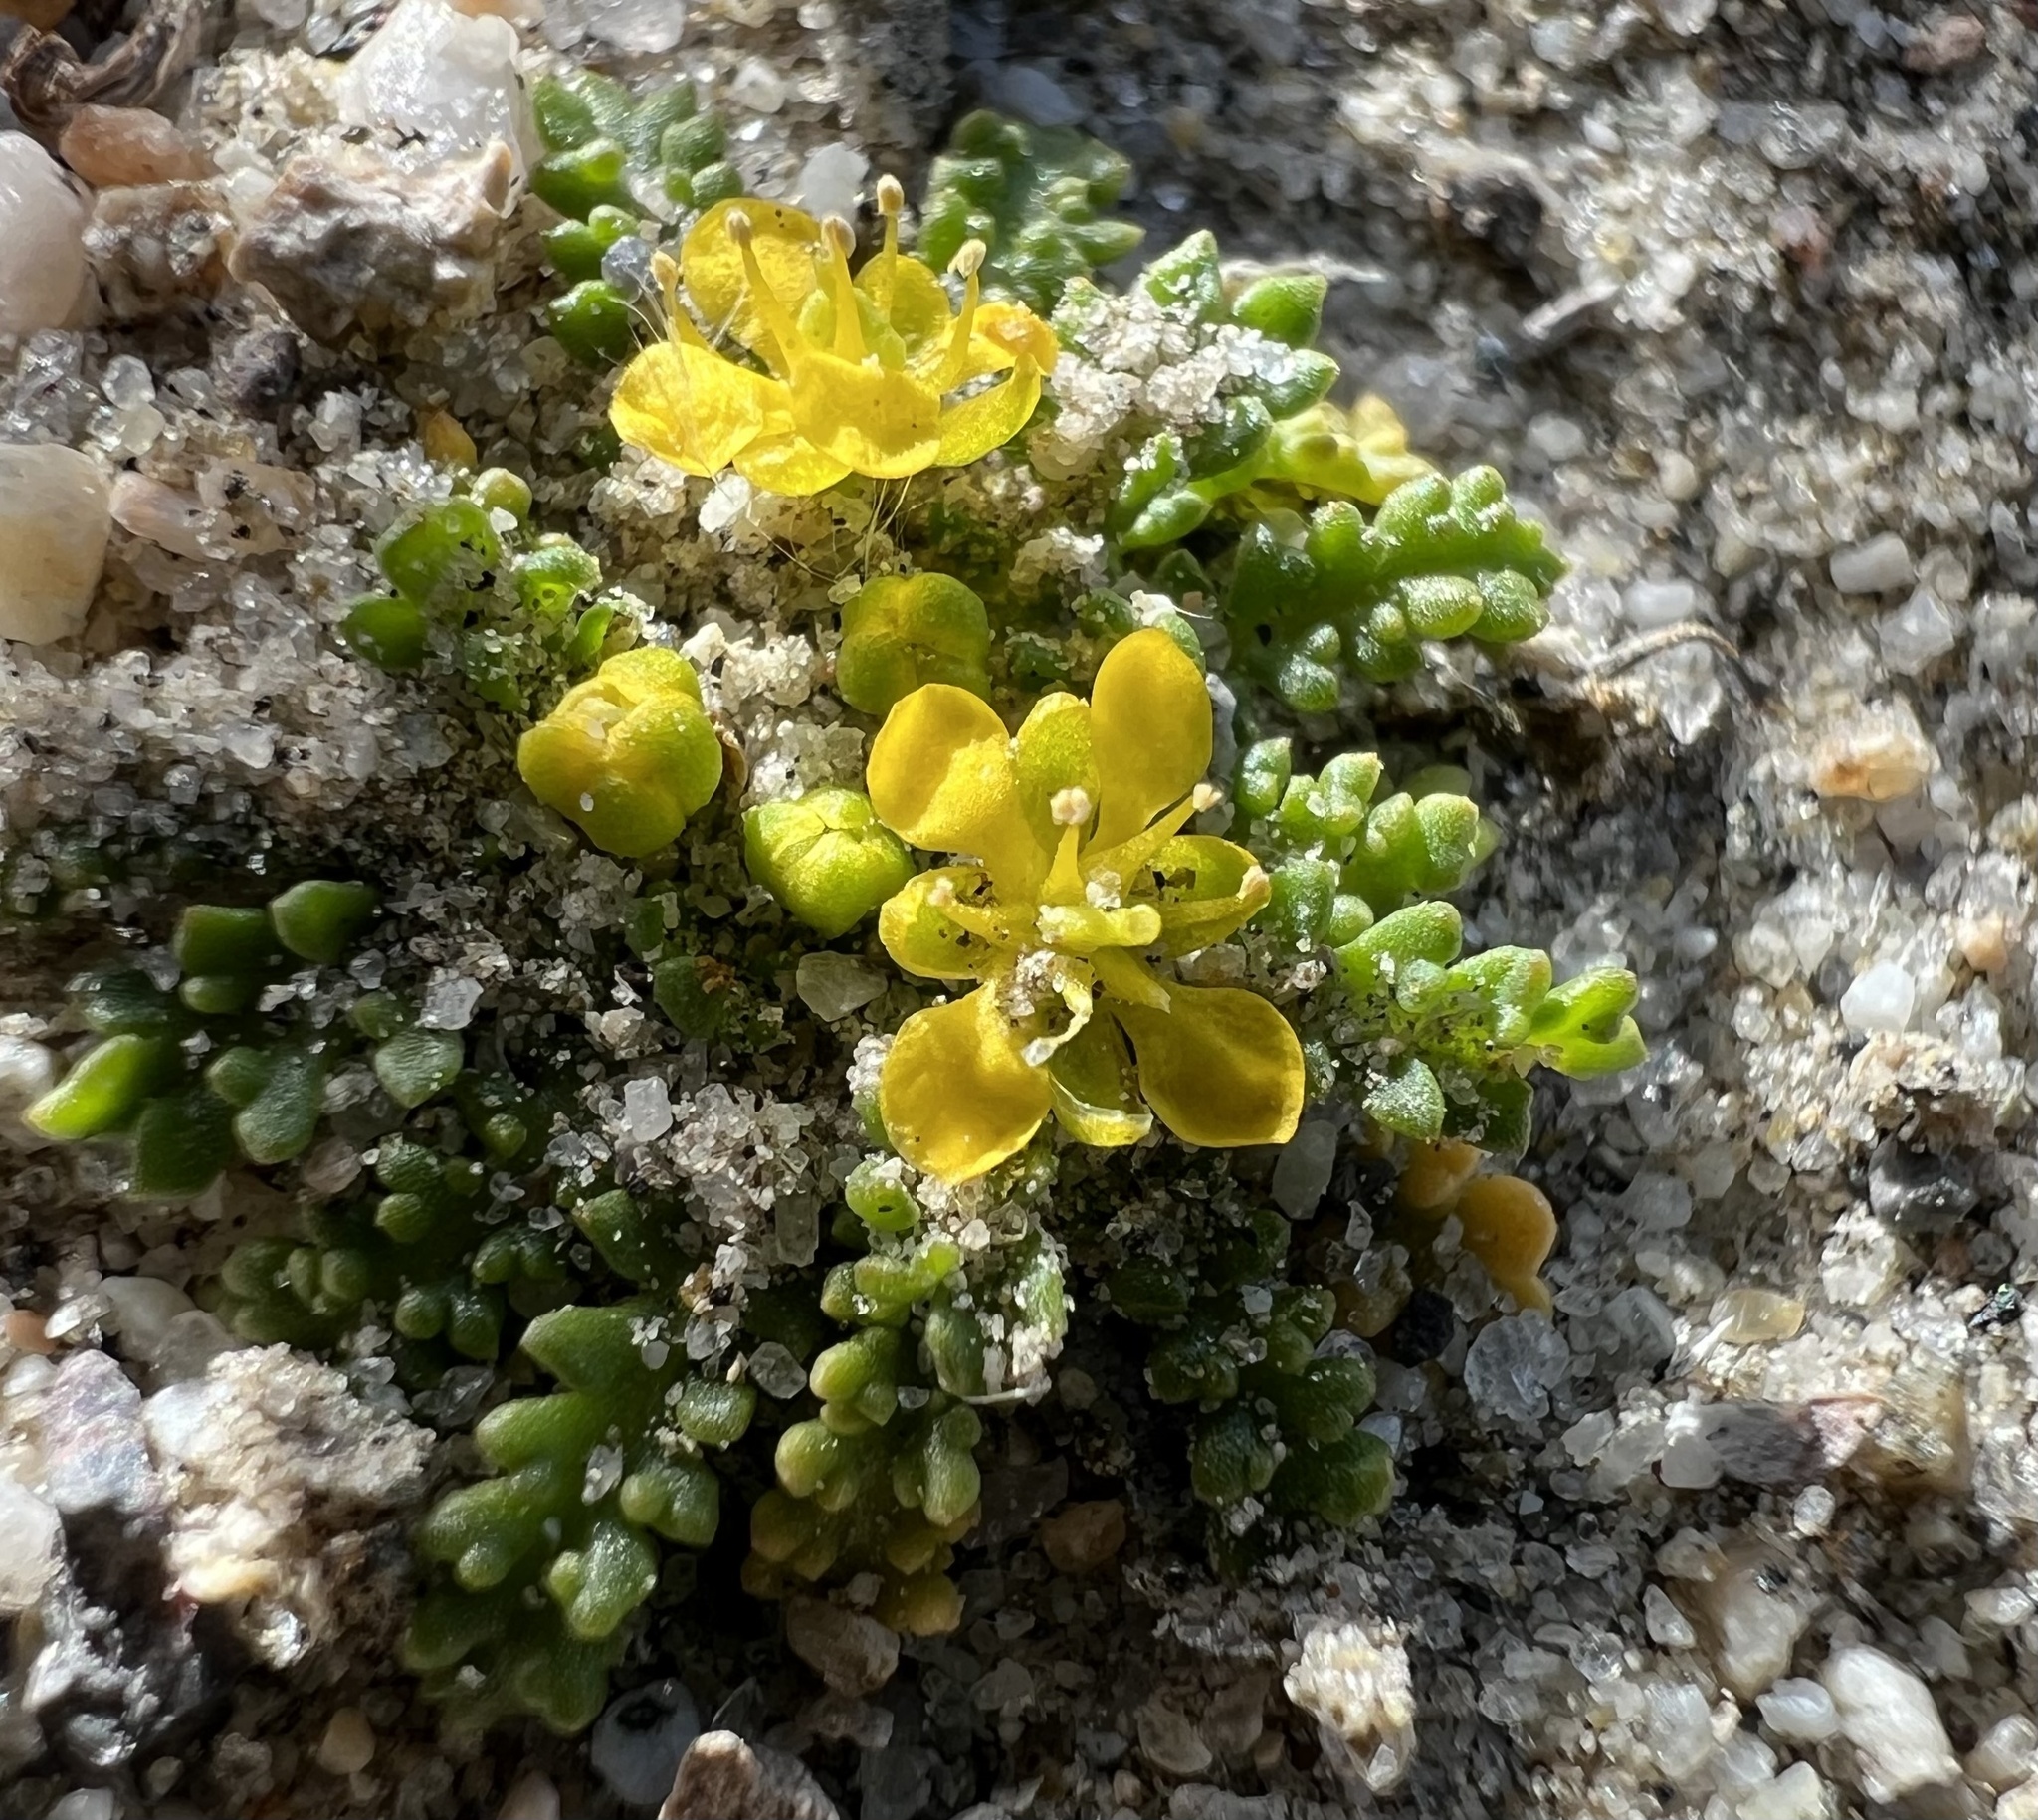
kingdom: Plantae
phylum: Tracheophyta
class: Magnoliopsida
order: Brassicales
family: Brassicaceae
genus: Lepidium
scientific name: Lepidium flavum
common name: Yellow pepperwort
